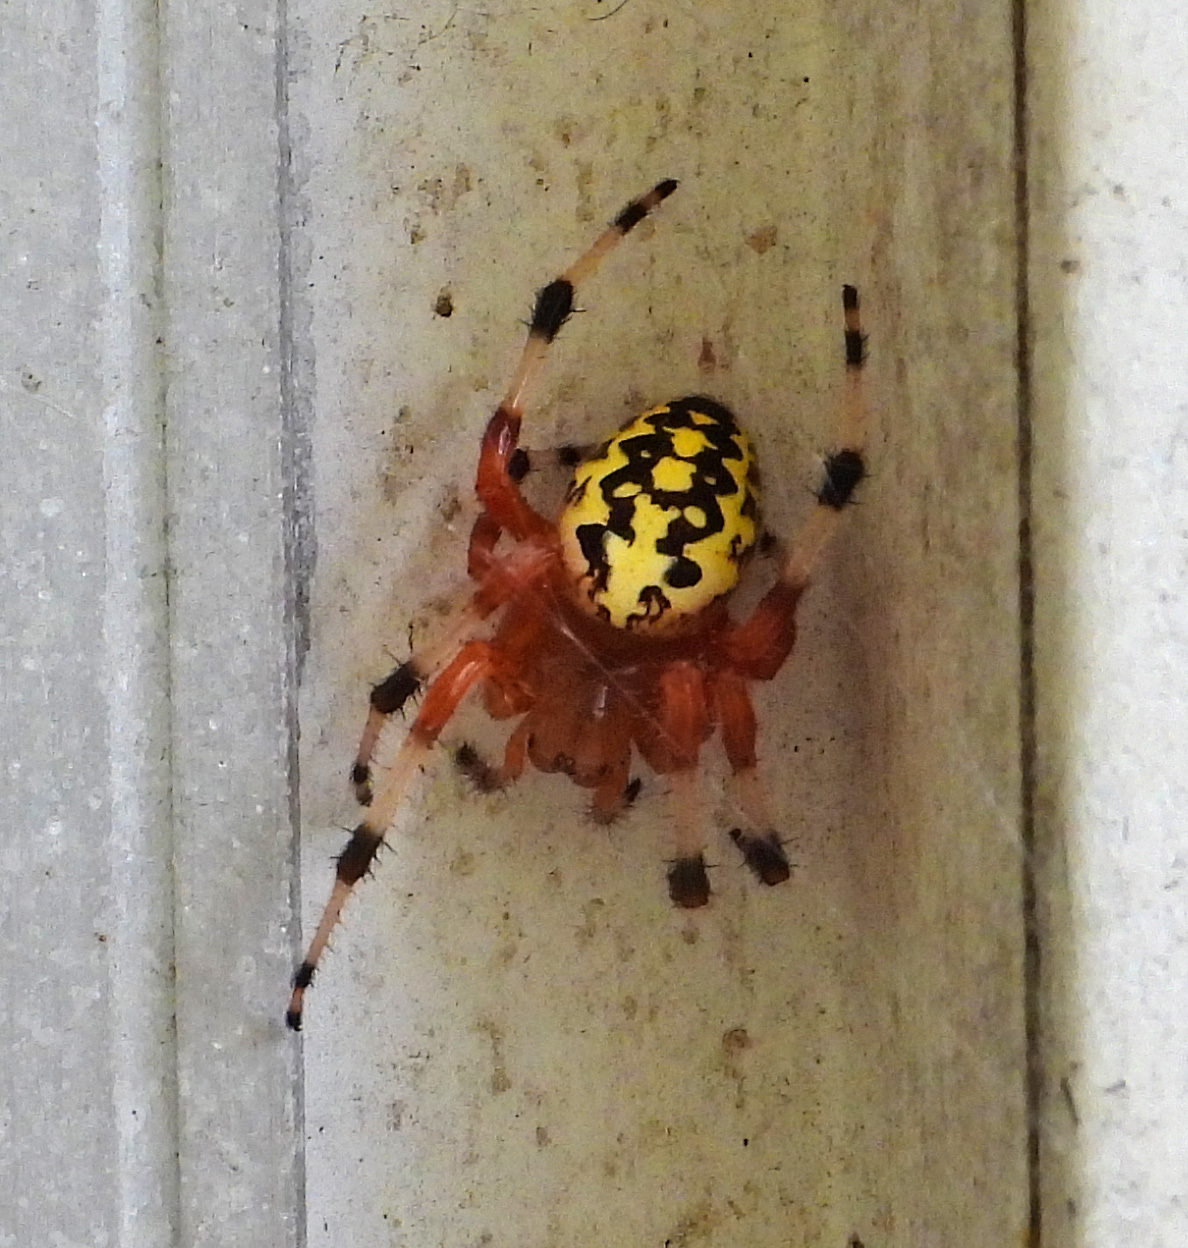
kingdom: Animalia
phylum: Arthropoda
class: Arachnida
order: Araneae
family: Araneidae
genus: Araneus
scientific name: Araneus marmoreus
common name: Marbled orbweaver
